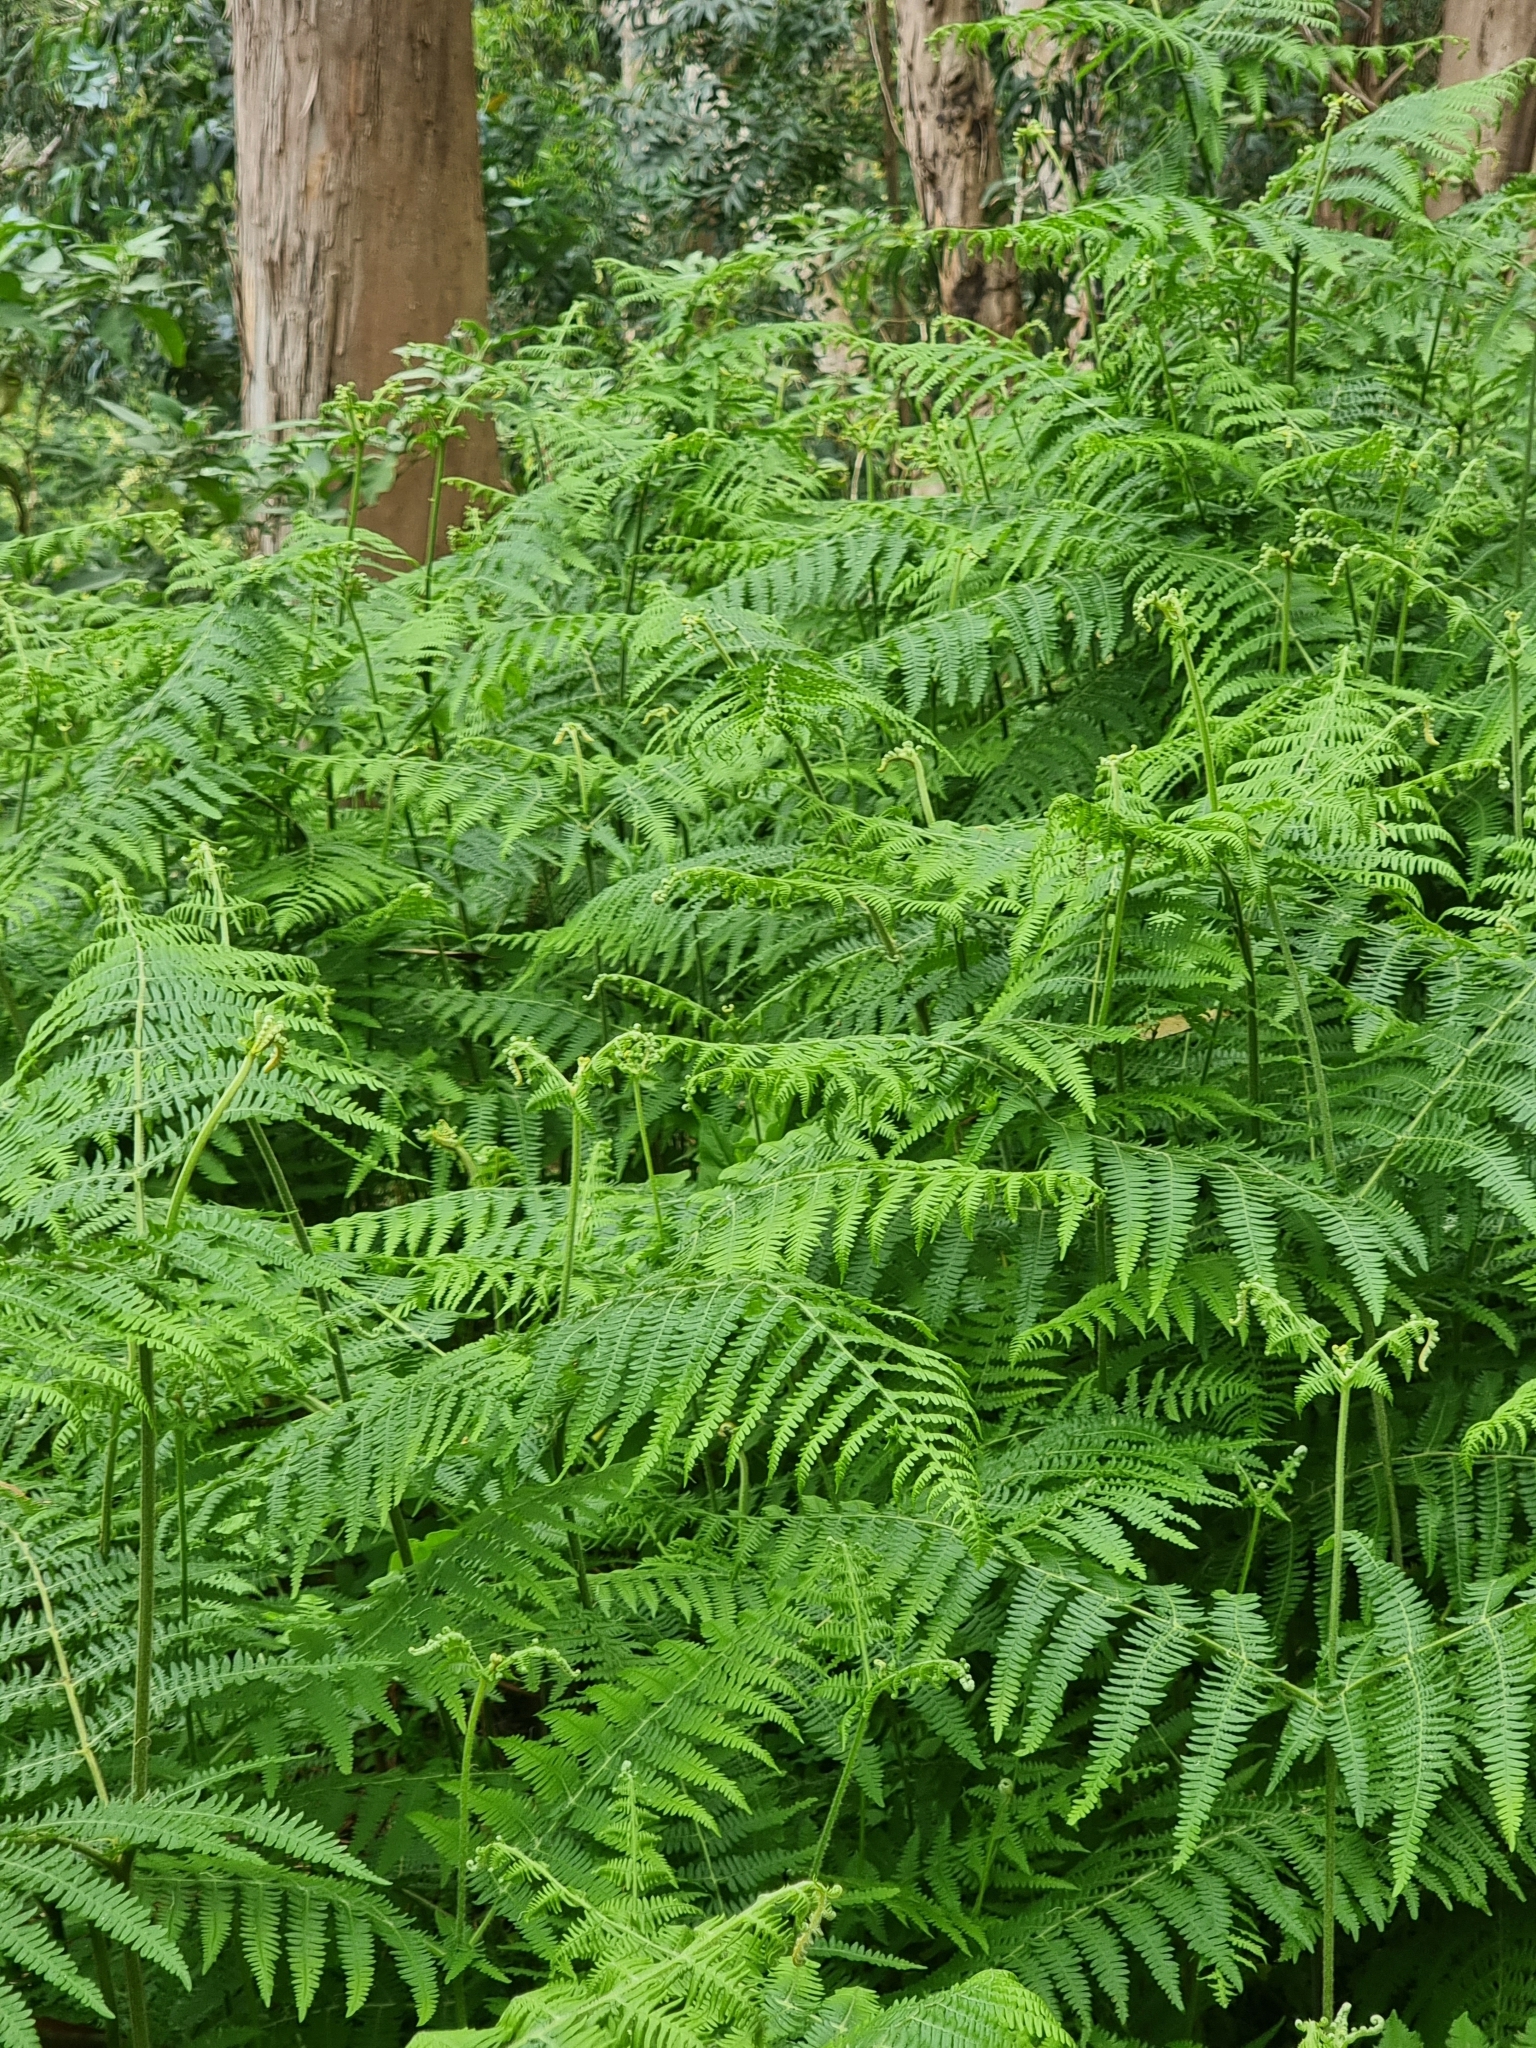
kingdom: Plantae
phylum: Tracheophyta
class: Polypodiopsida
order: Polypodiales
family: Dennstaedtiaceae
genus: Pteridium
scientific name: Pteridium aquilinum
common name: Bracken
